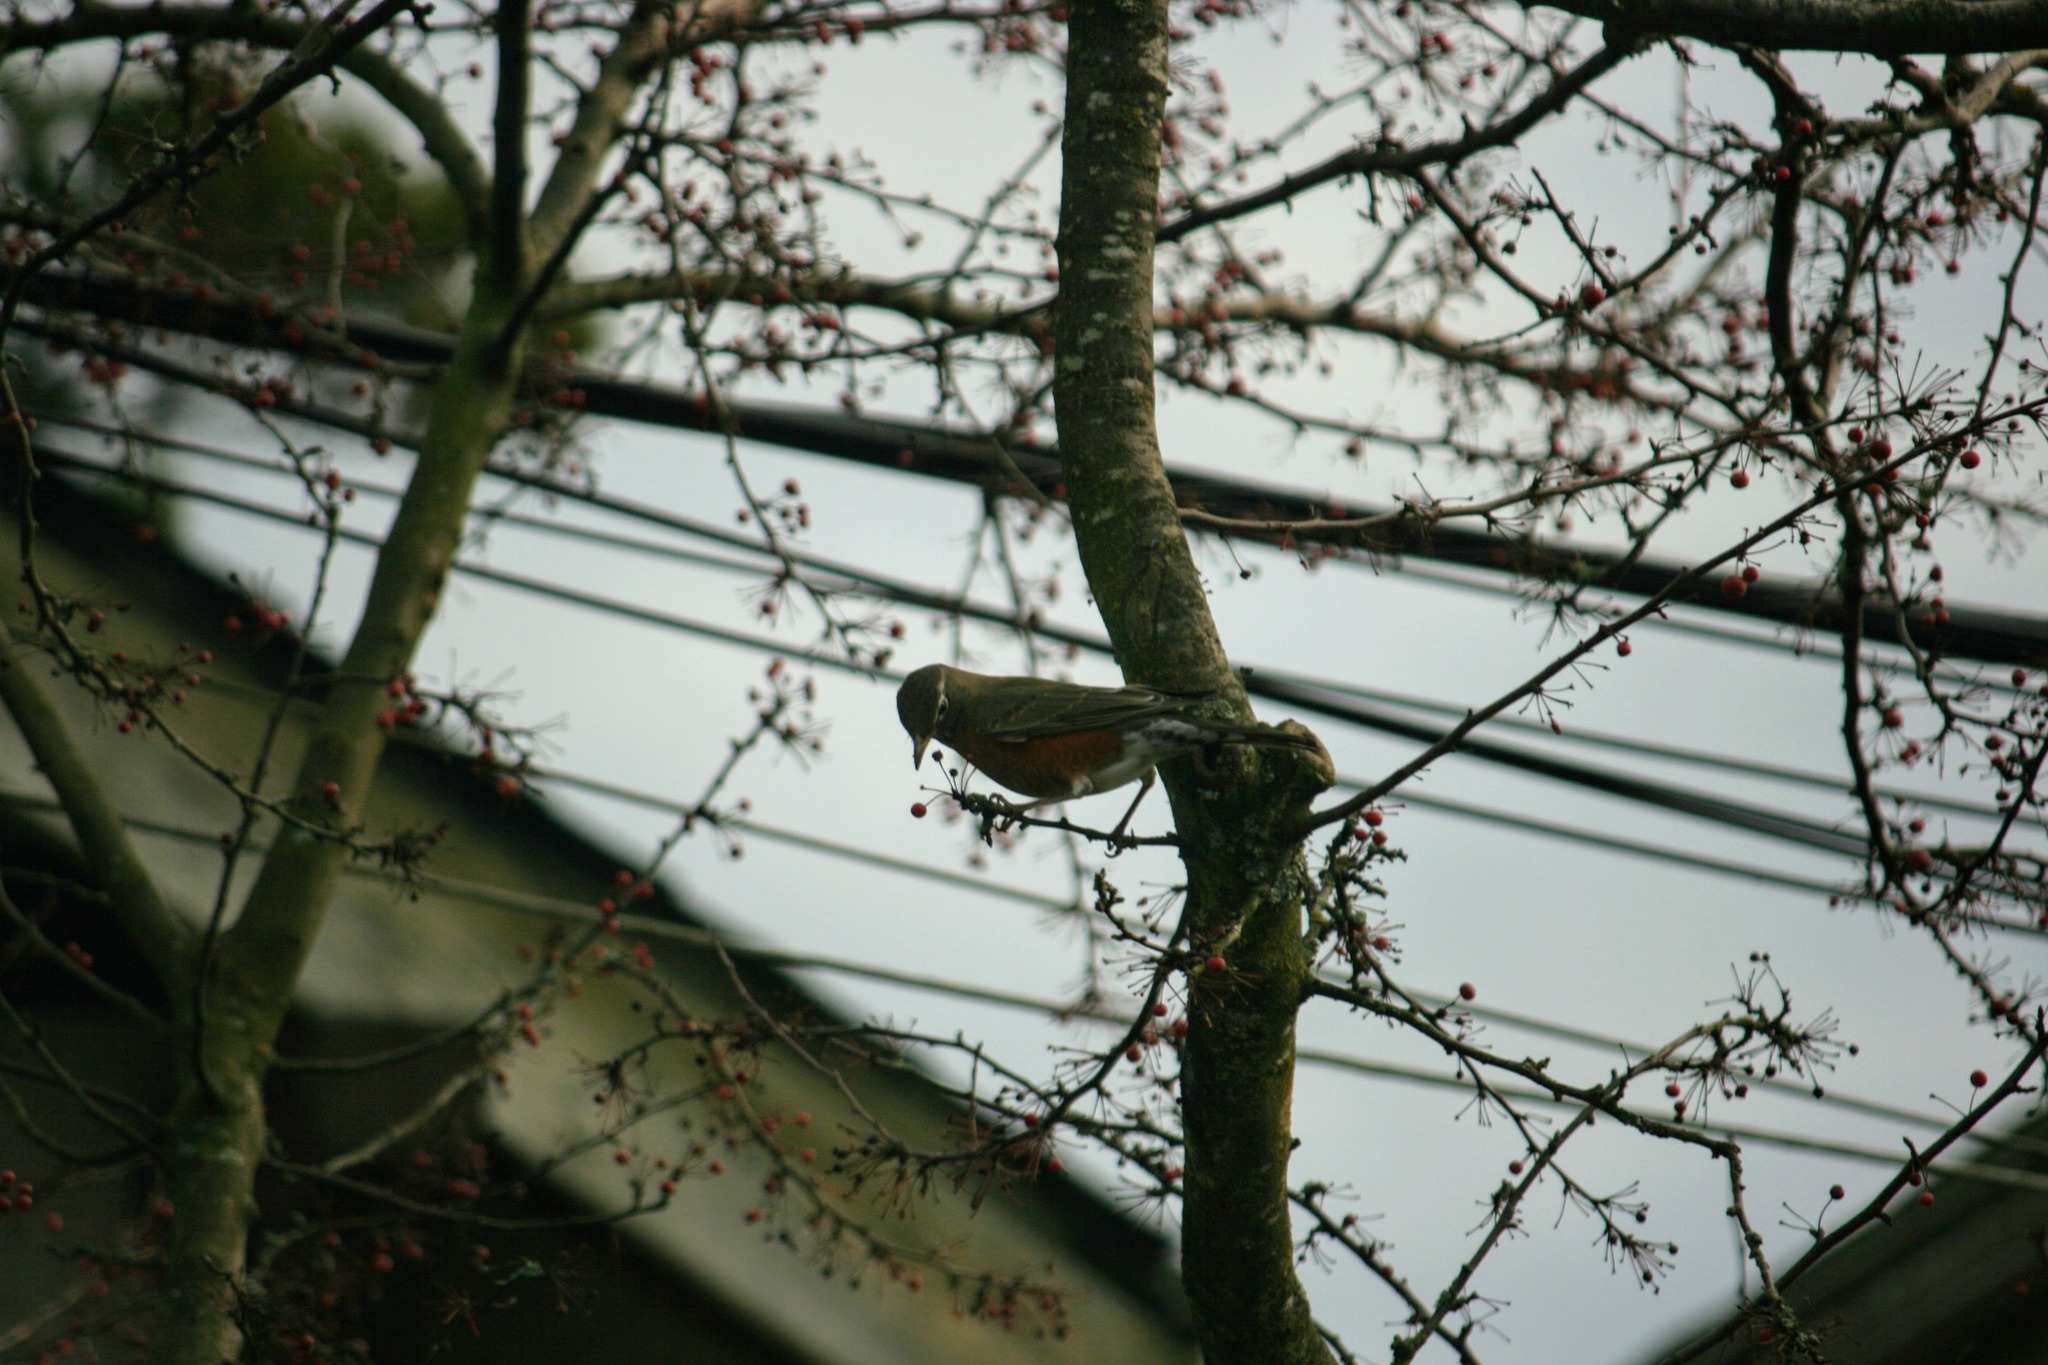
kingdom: Animalia
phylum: Chordata
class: Aves
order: Passeriformes
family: Turdidae
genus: Turdus
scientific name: Turdus migratorius
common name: American robin
